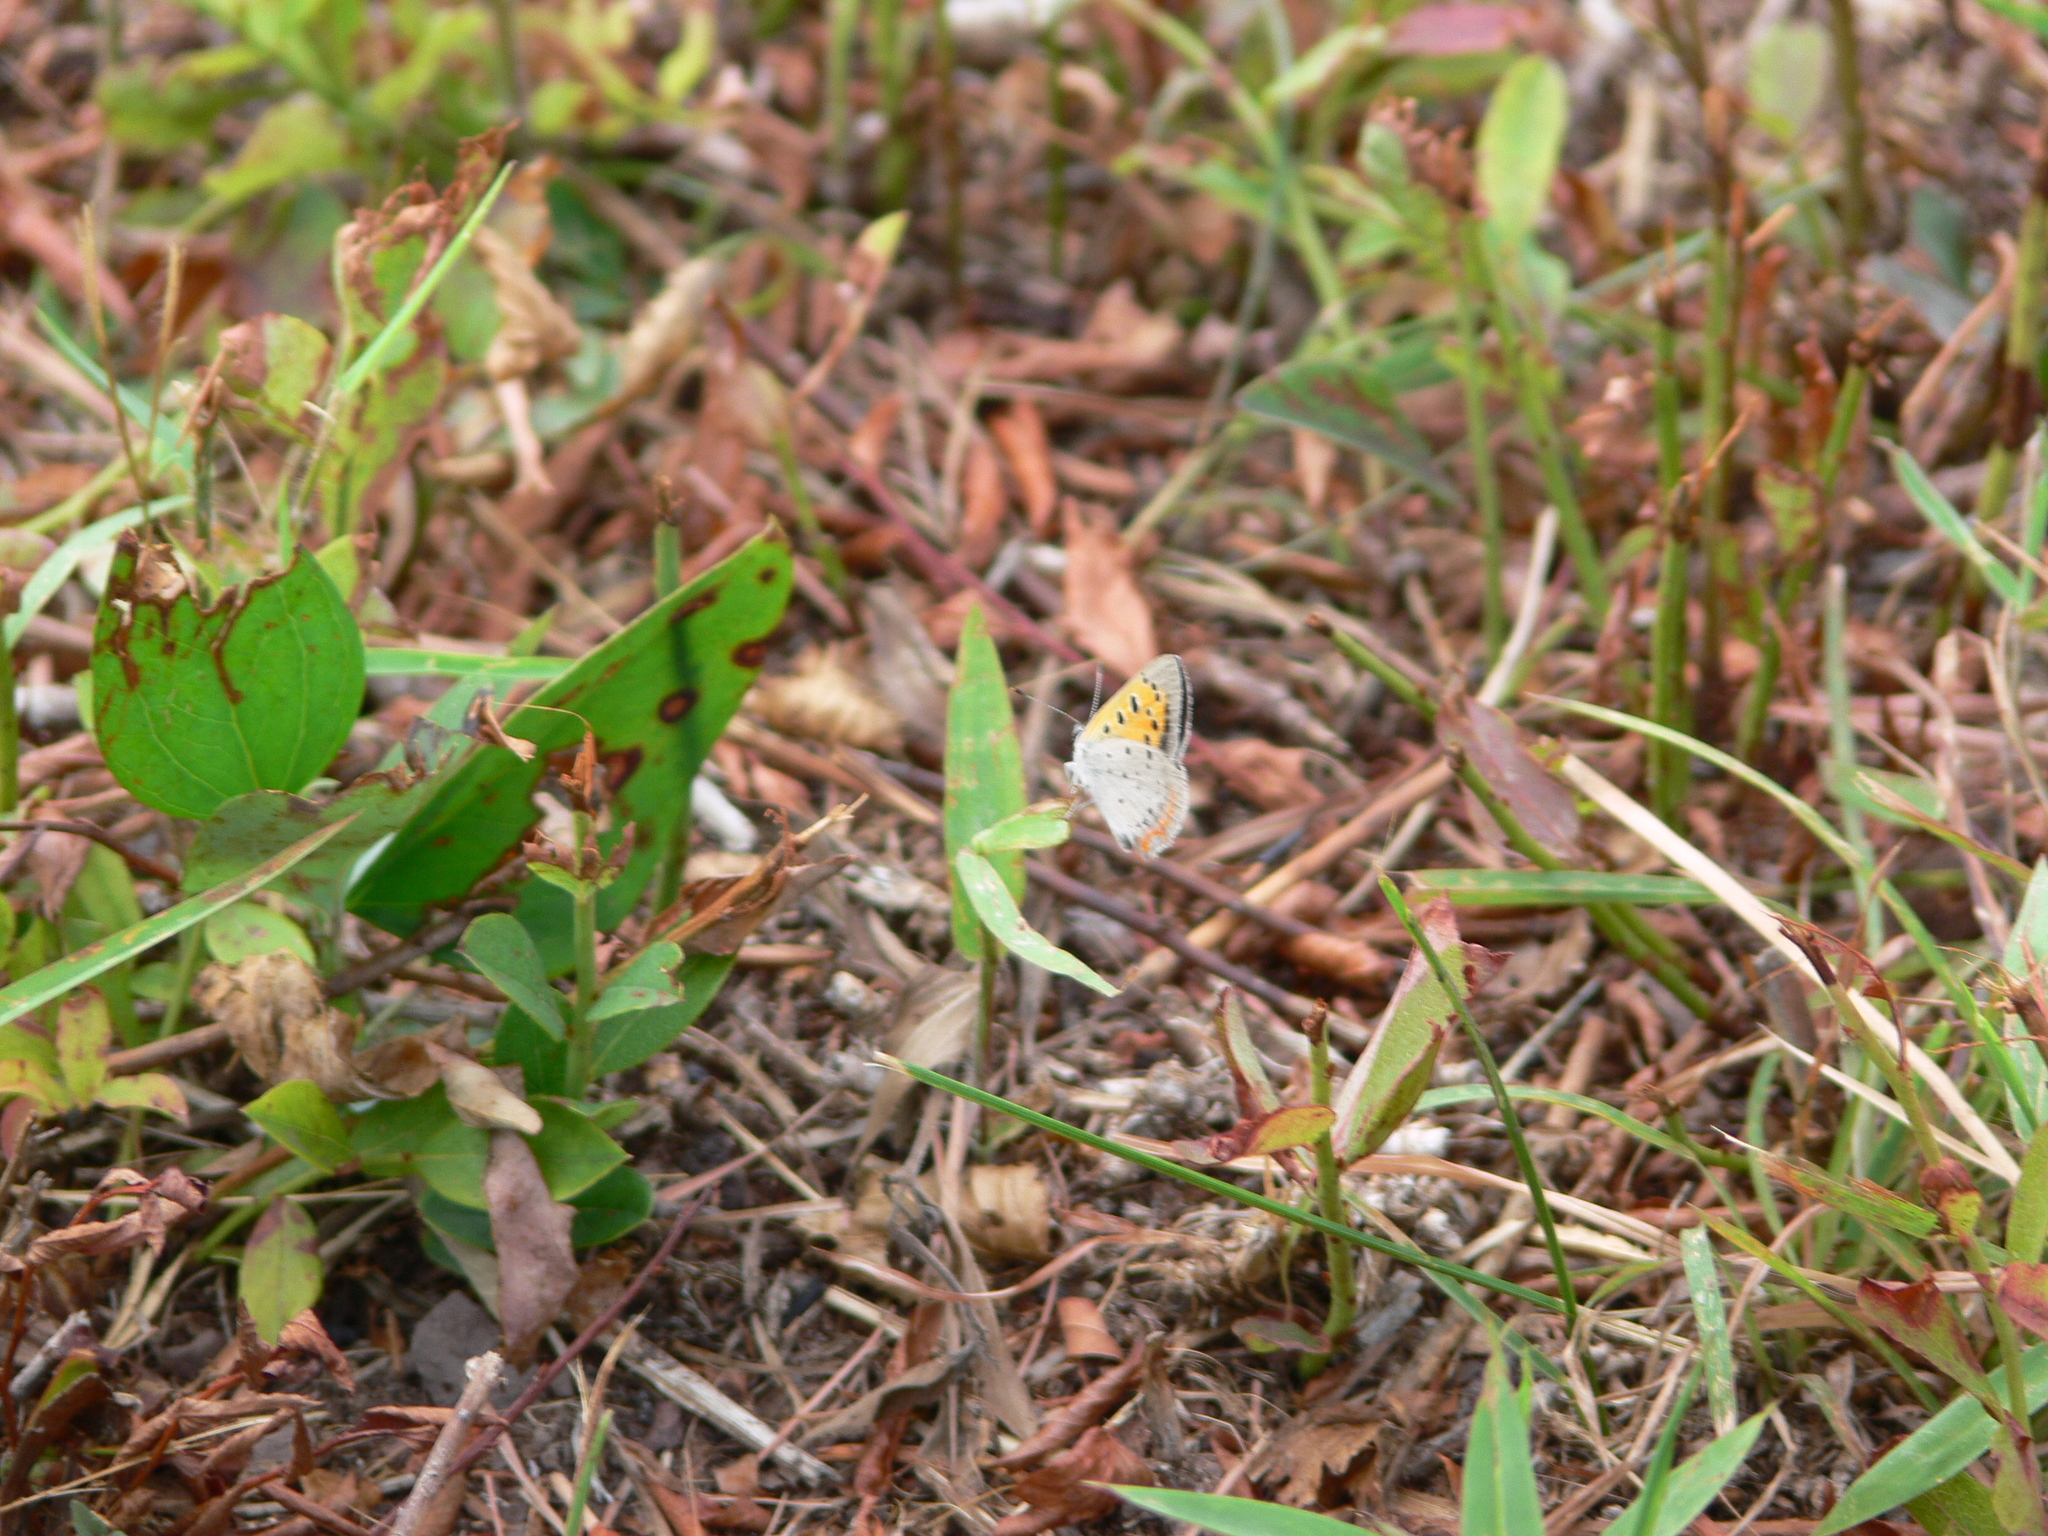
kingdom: Animalia
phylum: Arthropoda
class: Insecta
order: Lepidoptera
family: Lycaenidae
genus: Lycaena
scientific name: Lycaena hypophlaeas
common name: American copper
